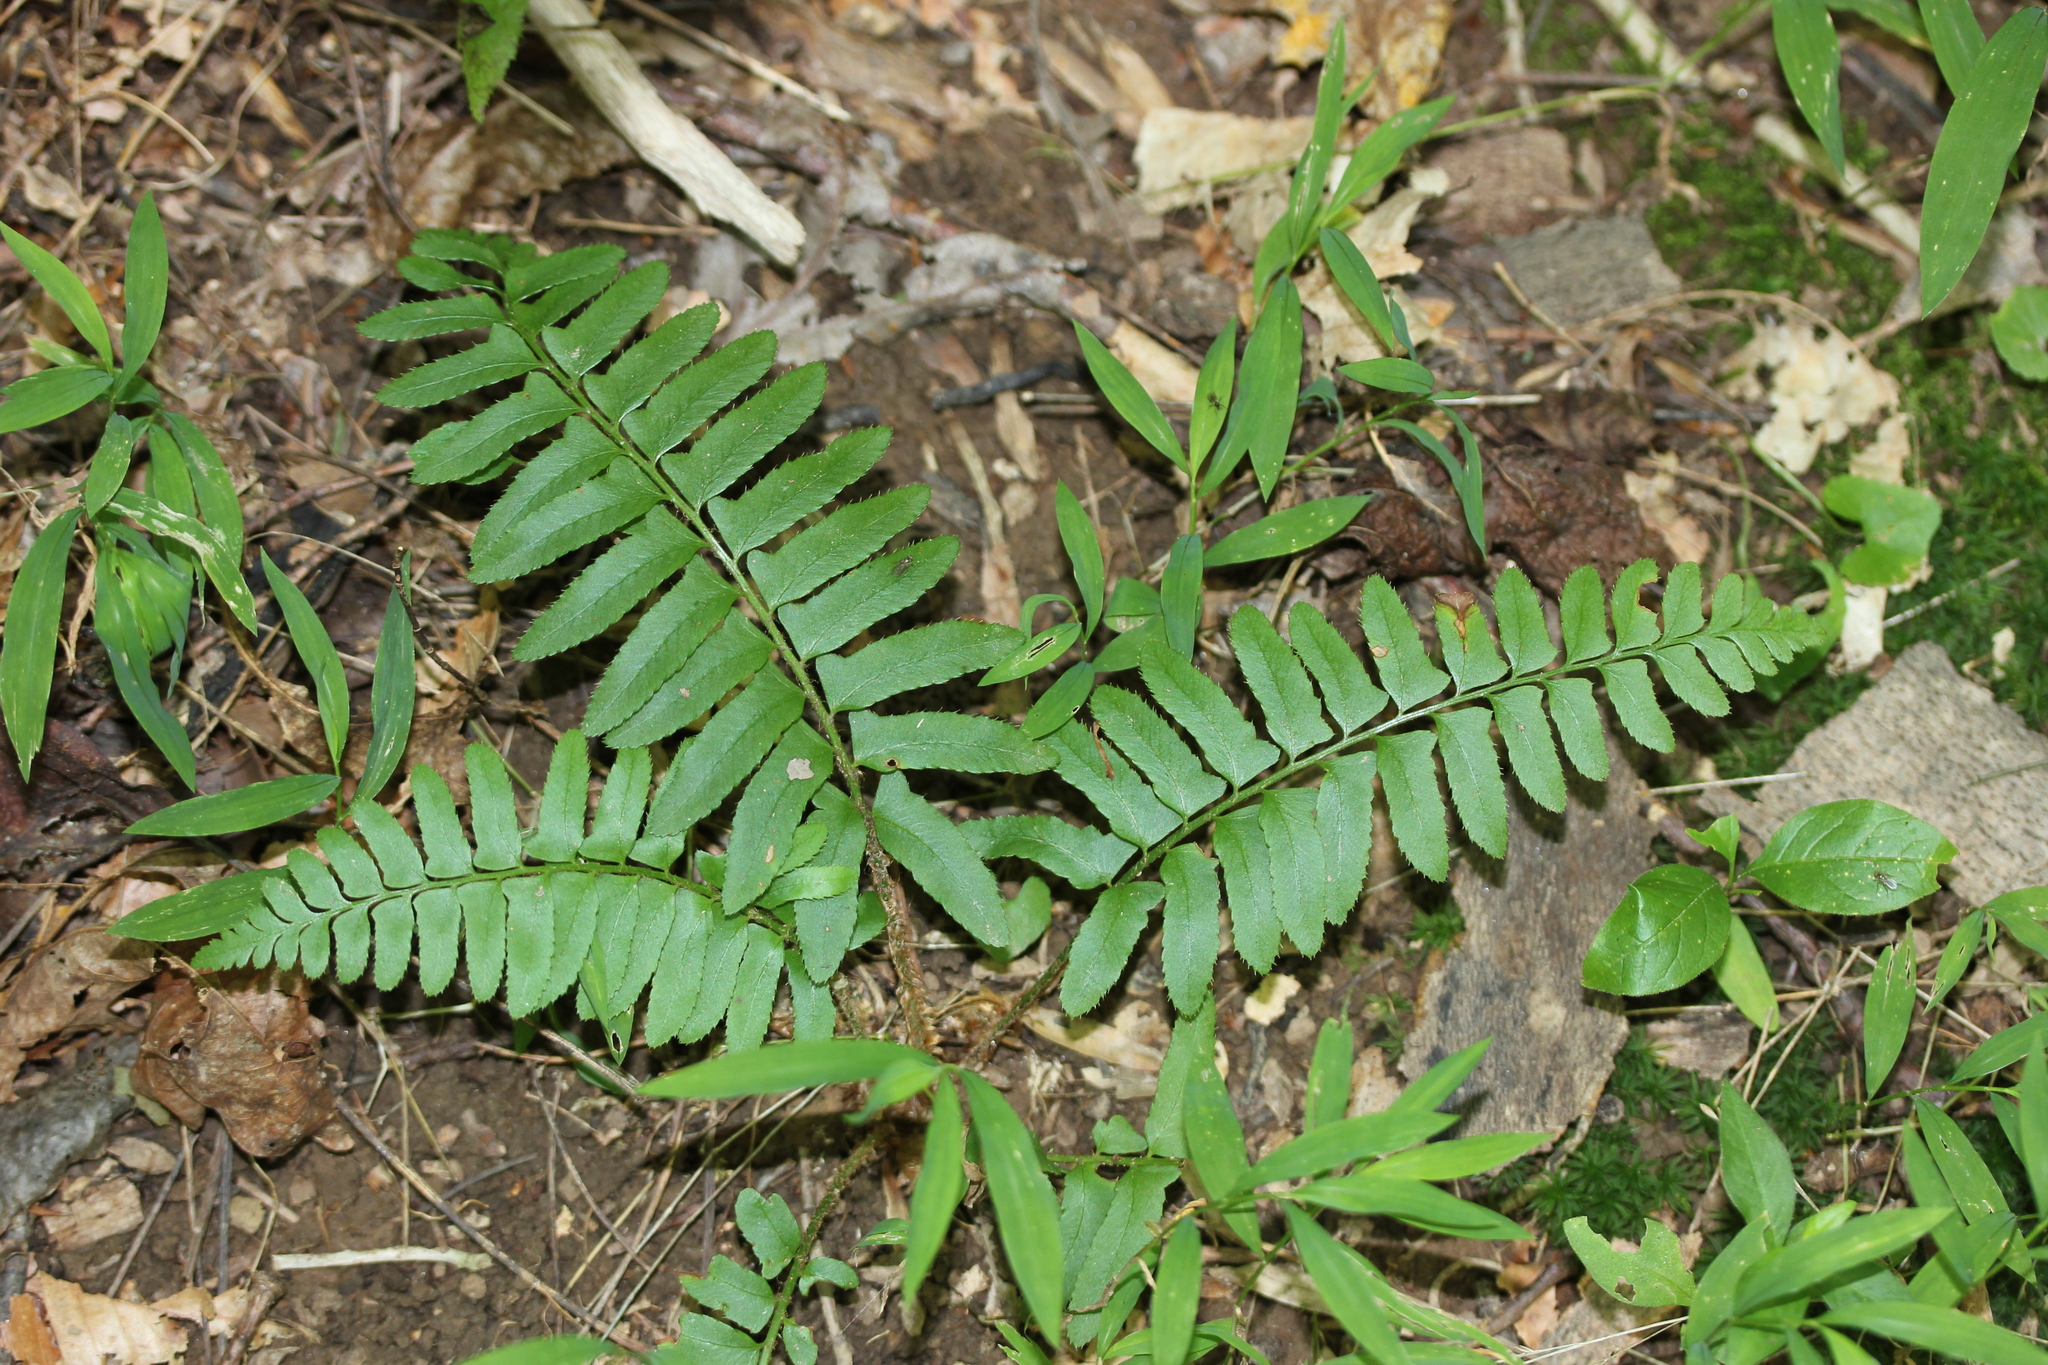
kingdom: Plantae
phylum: Tracheophyta
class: Polypodiopsida
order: Polypodiales
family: Dryopteridaceae
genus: Polystichum
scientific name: Polystichum acrostichoides
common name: Christmas fern
